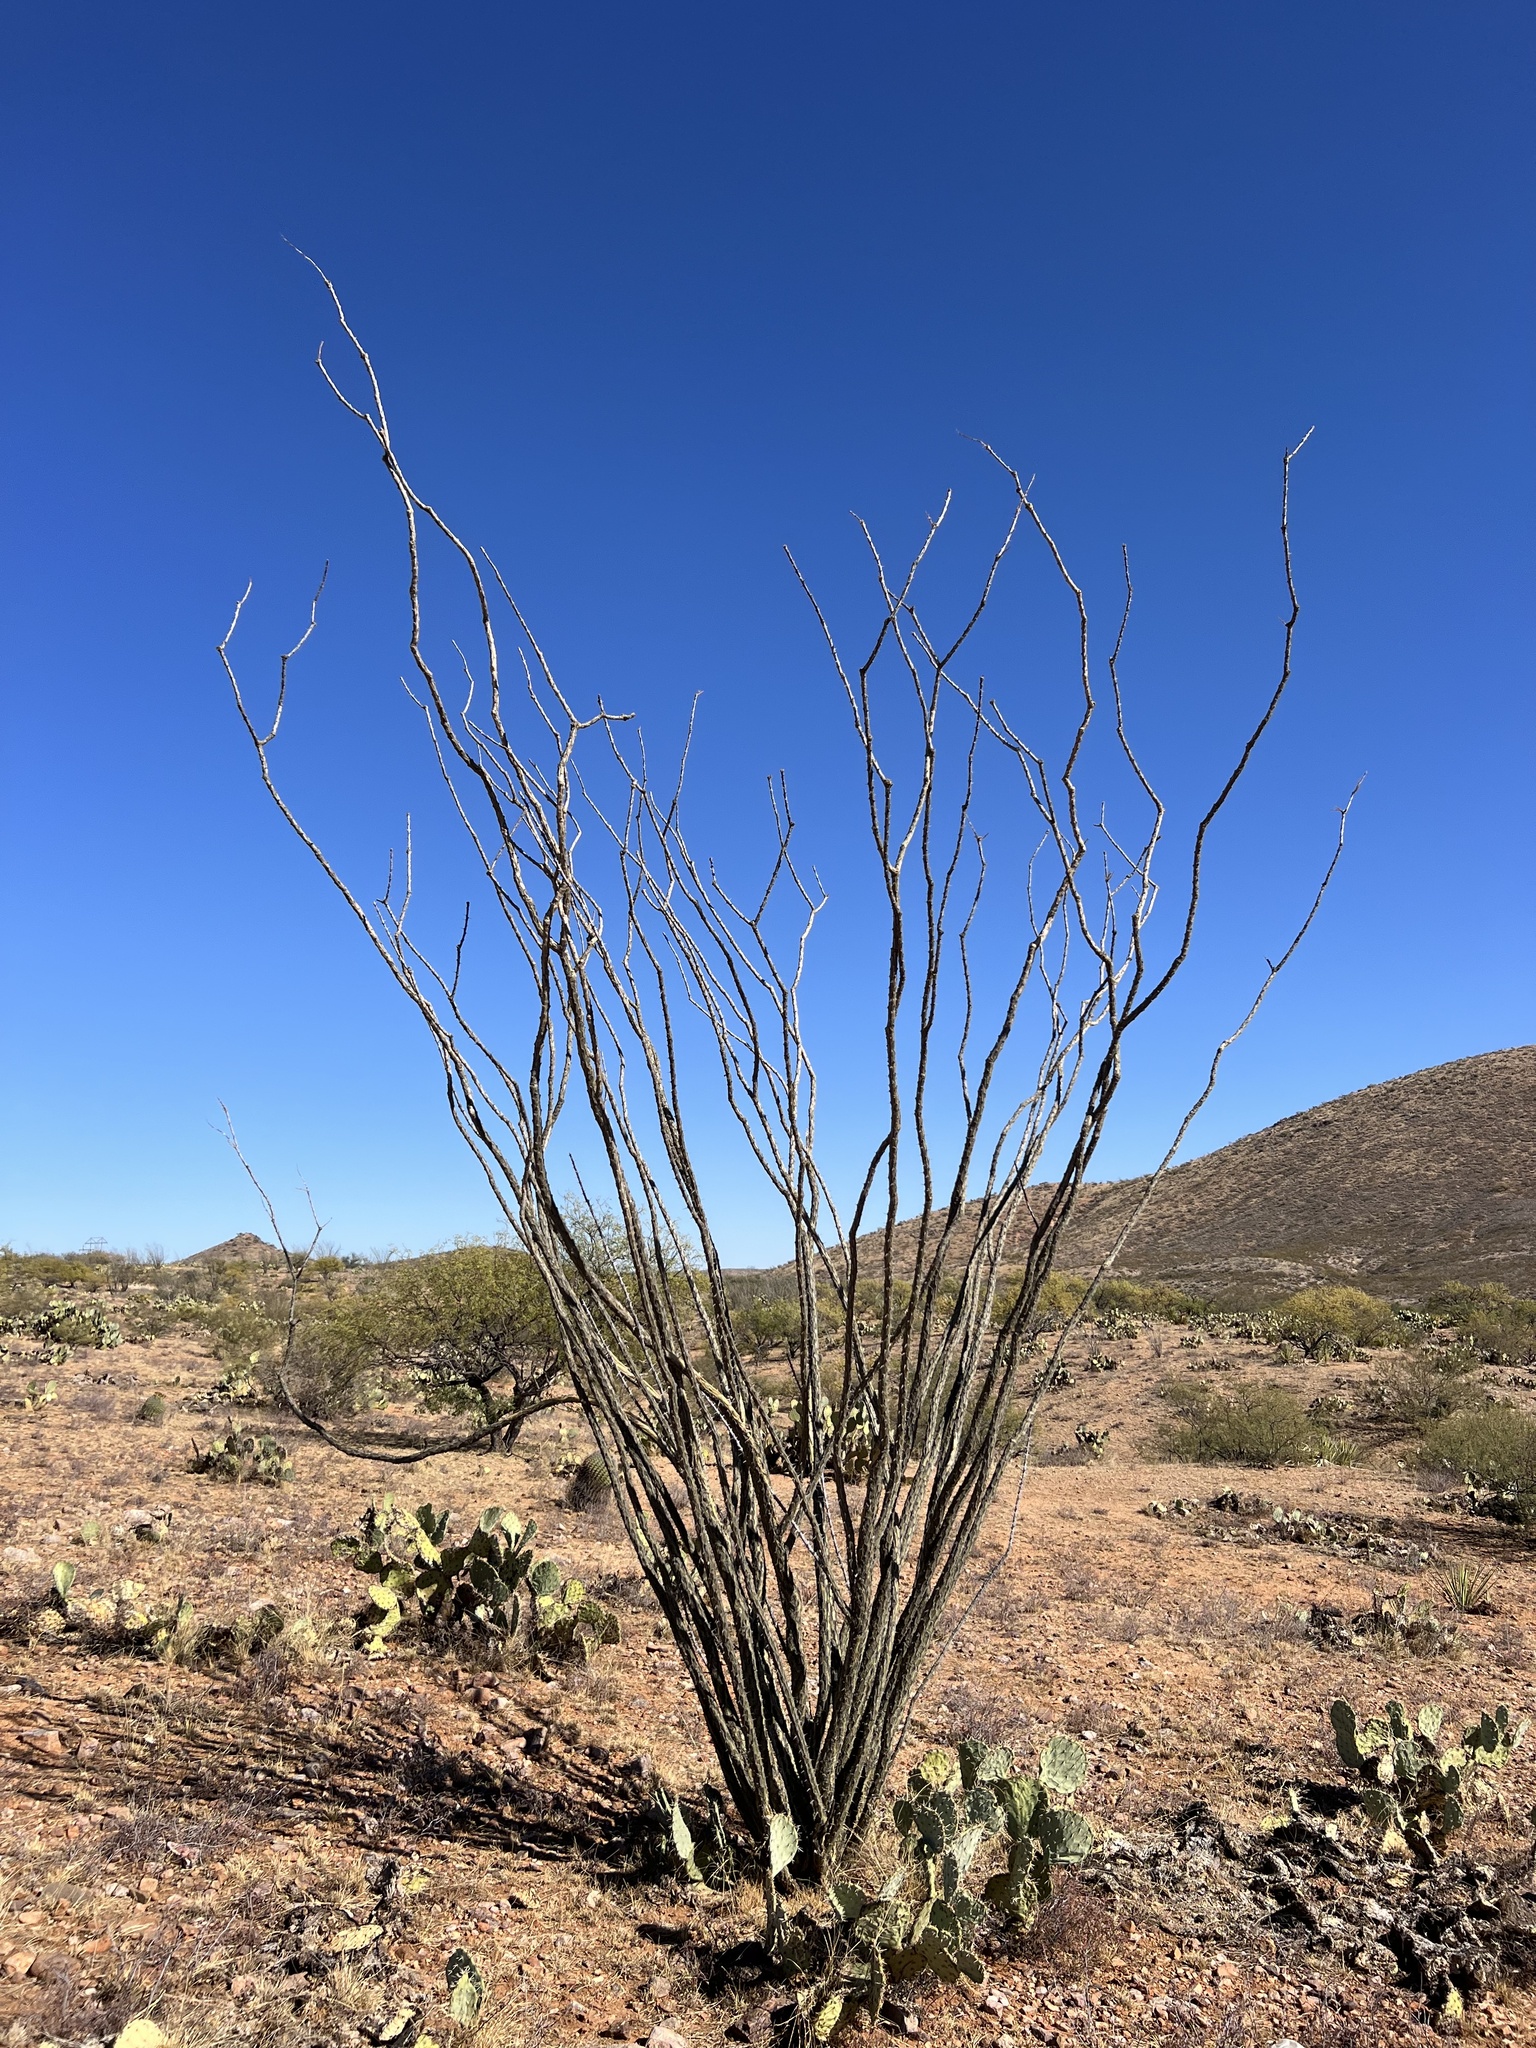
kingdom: Plantae
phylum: Tracheophyta
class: Magnoliopsida
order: Ericales
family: Fouquieriaceae
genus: Fouquieria
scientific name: Fouquieria splendens
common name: Vine-cactus
